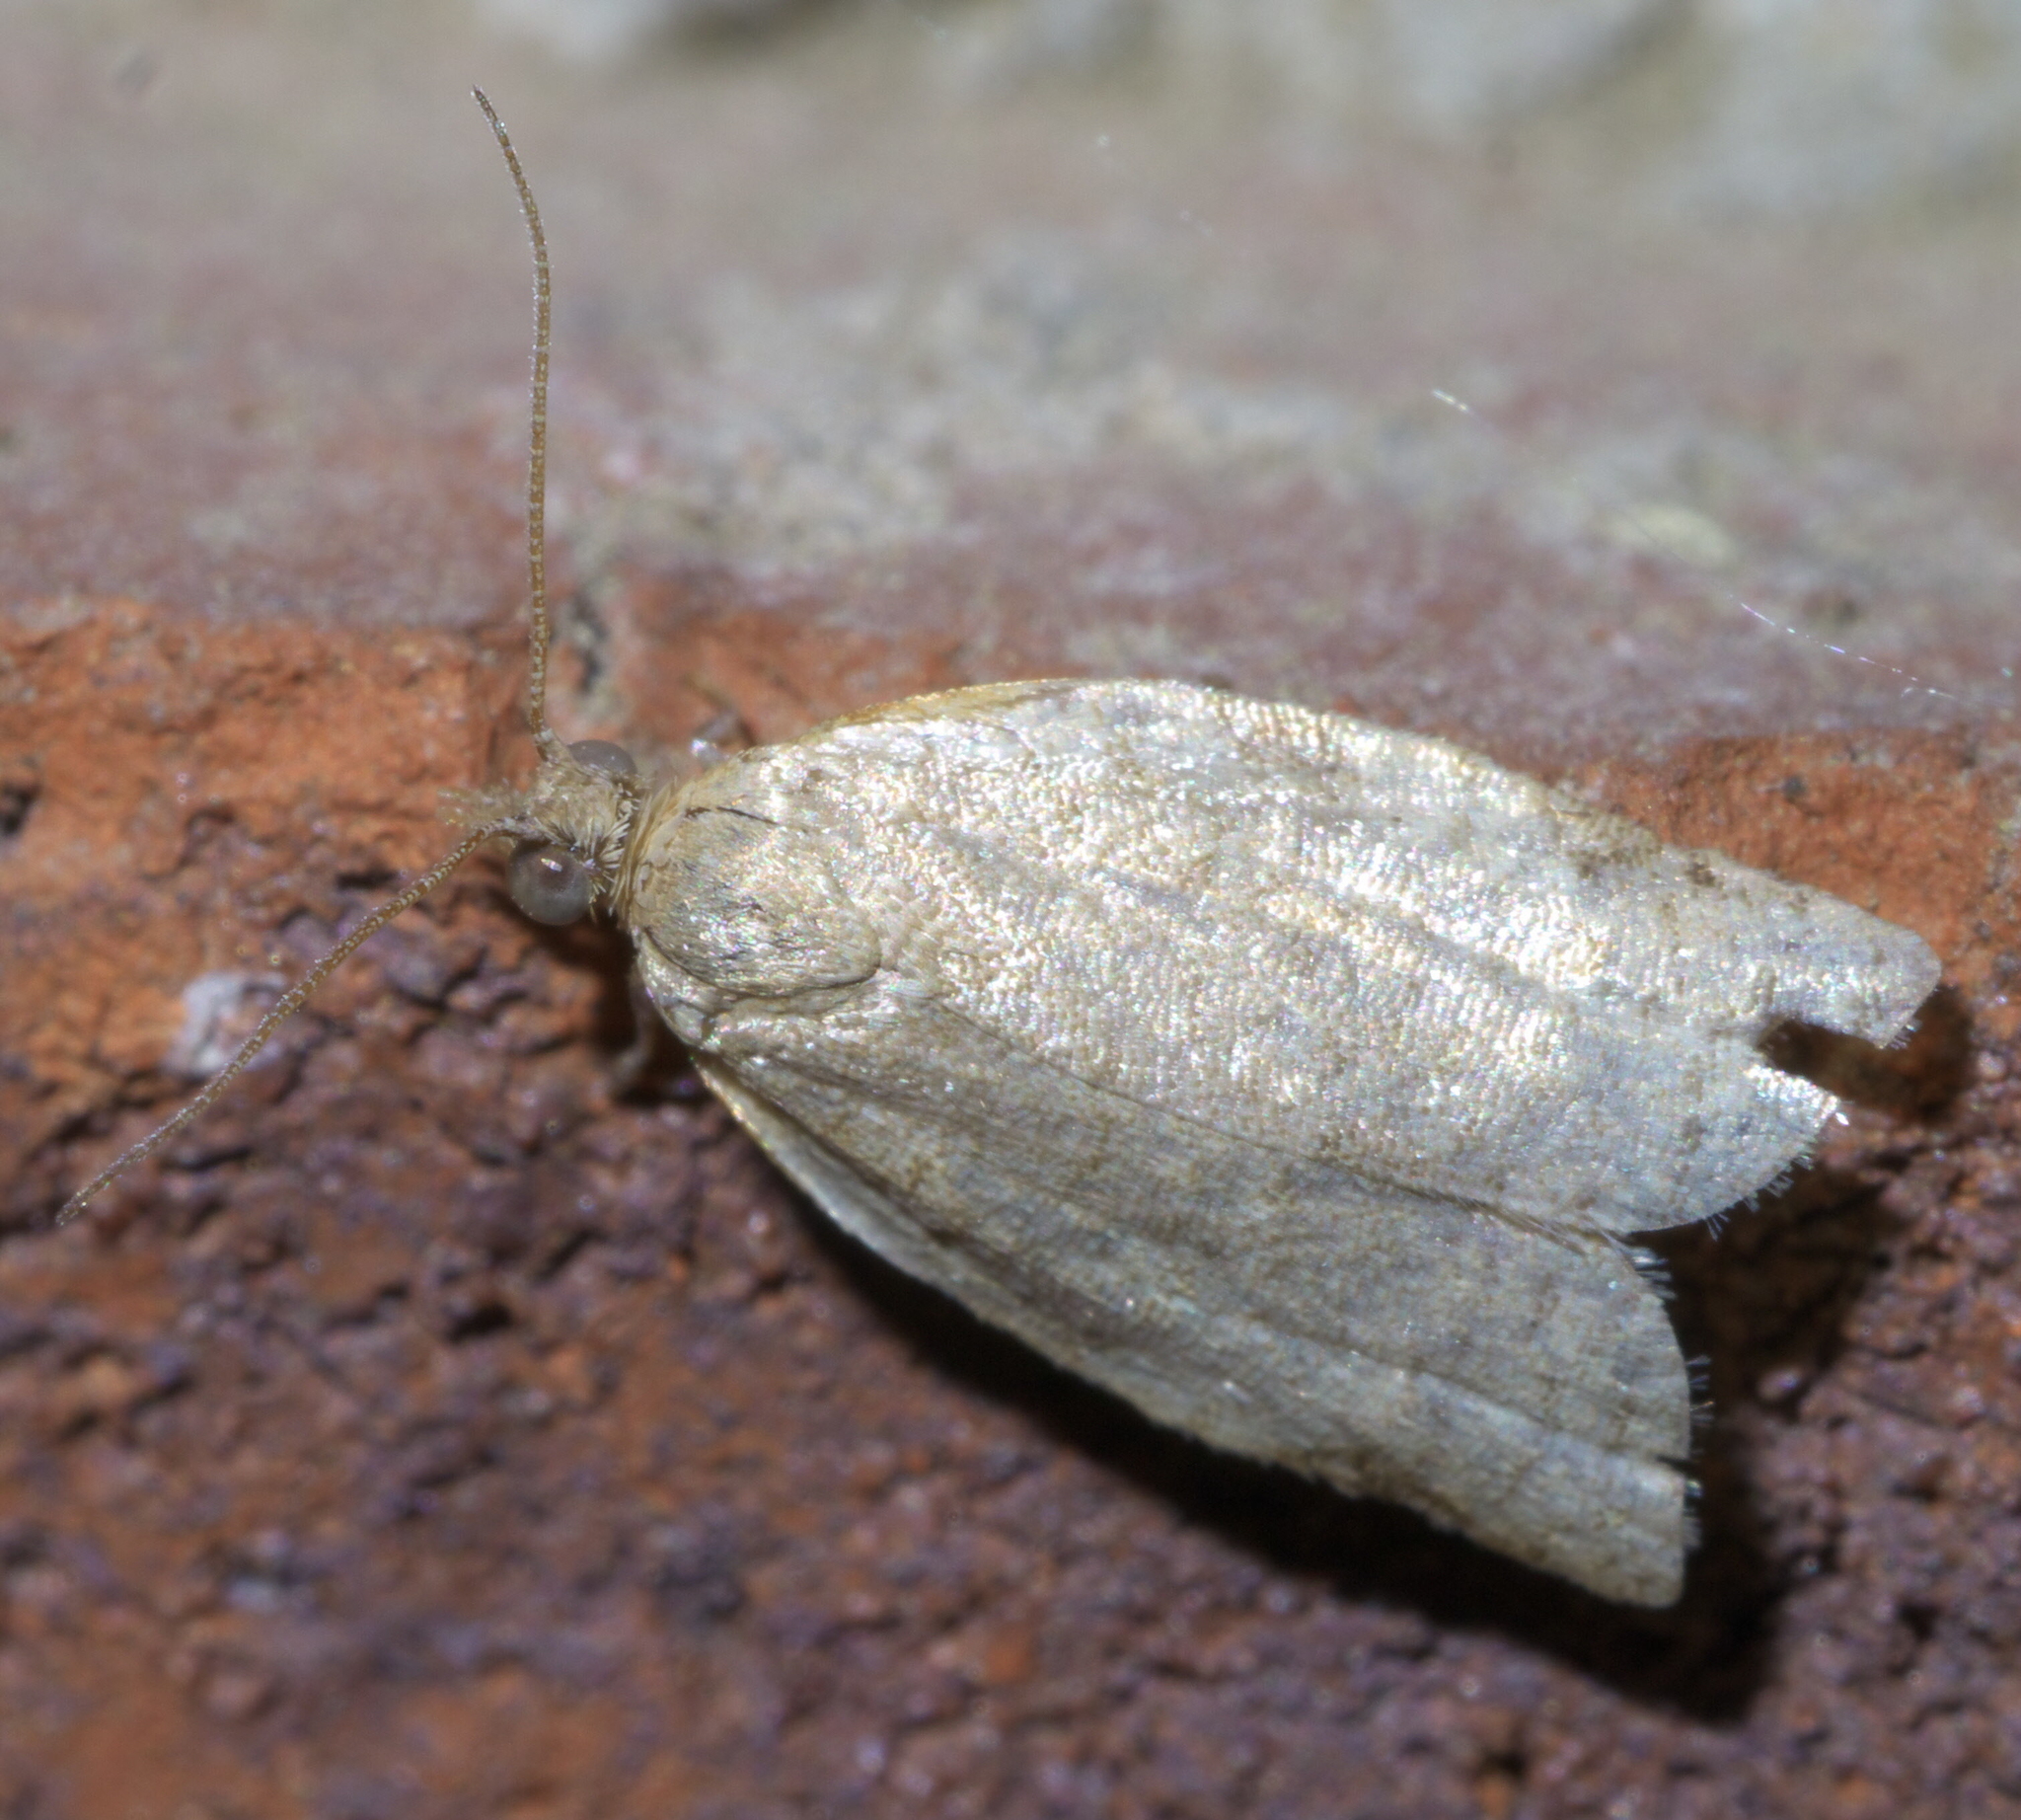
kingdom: Animalia
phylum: Arthropoda
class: Insecta
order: Lepidoptera
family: Tortricidae
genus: Clepsis
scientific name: Clepsis virescana
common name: Greenish apple moth
